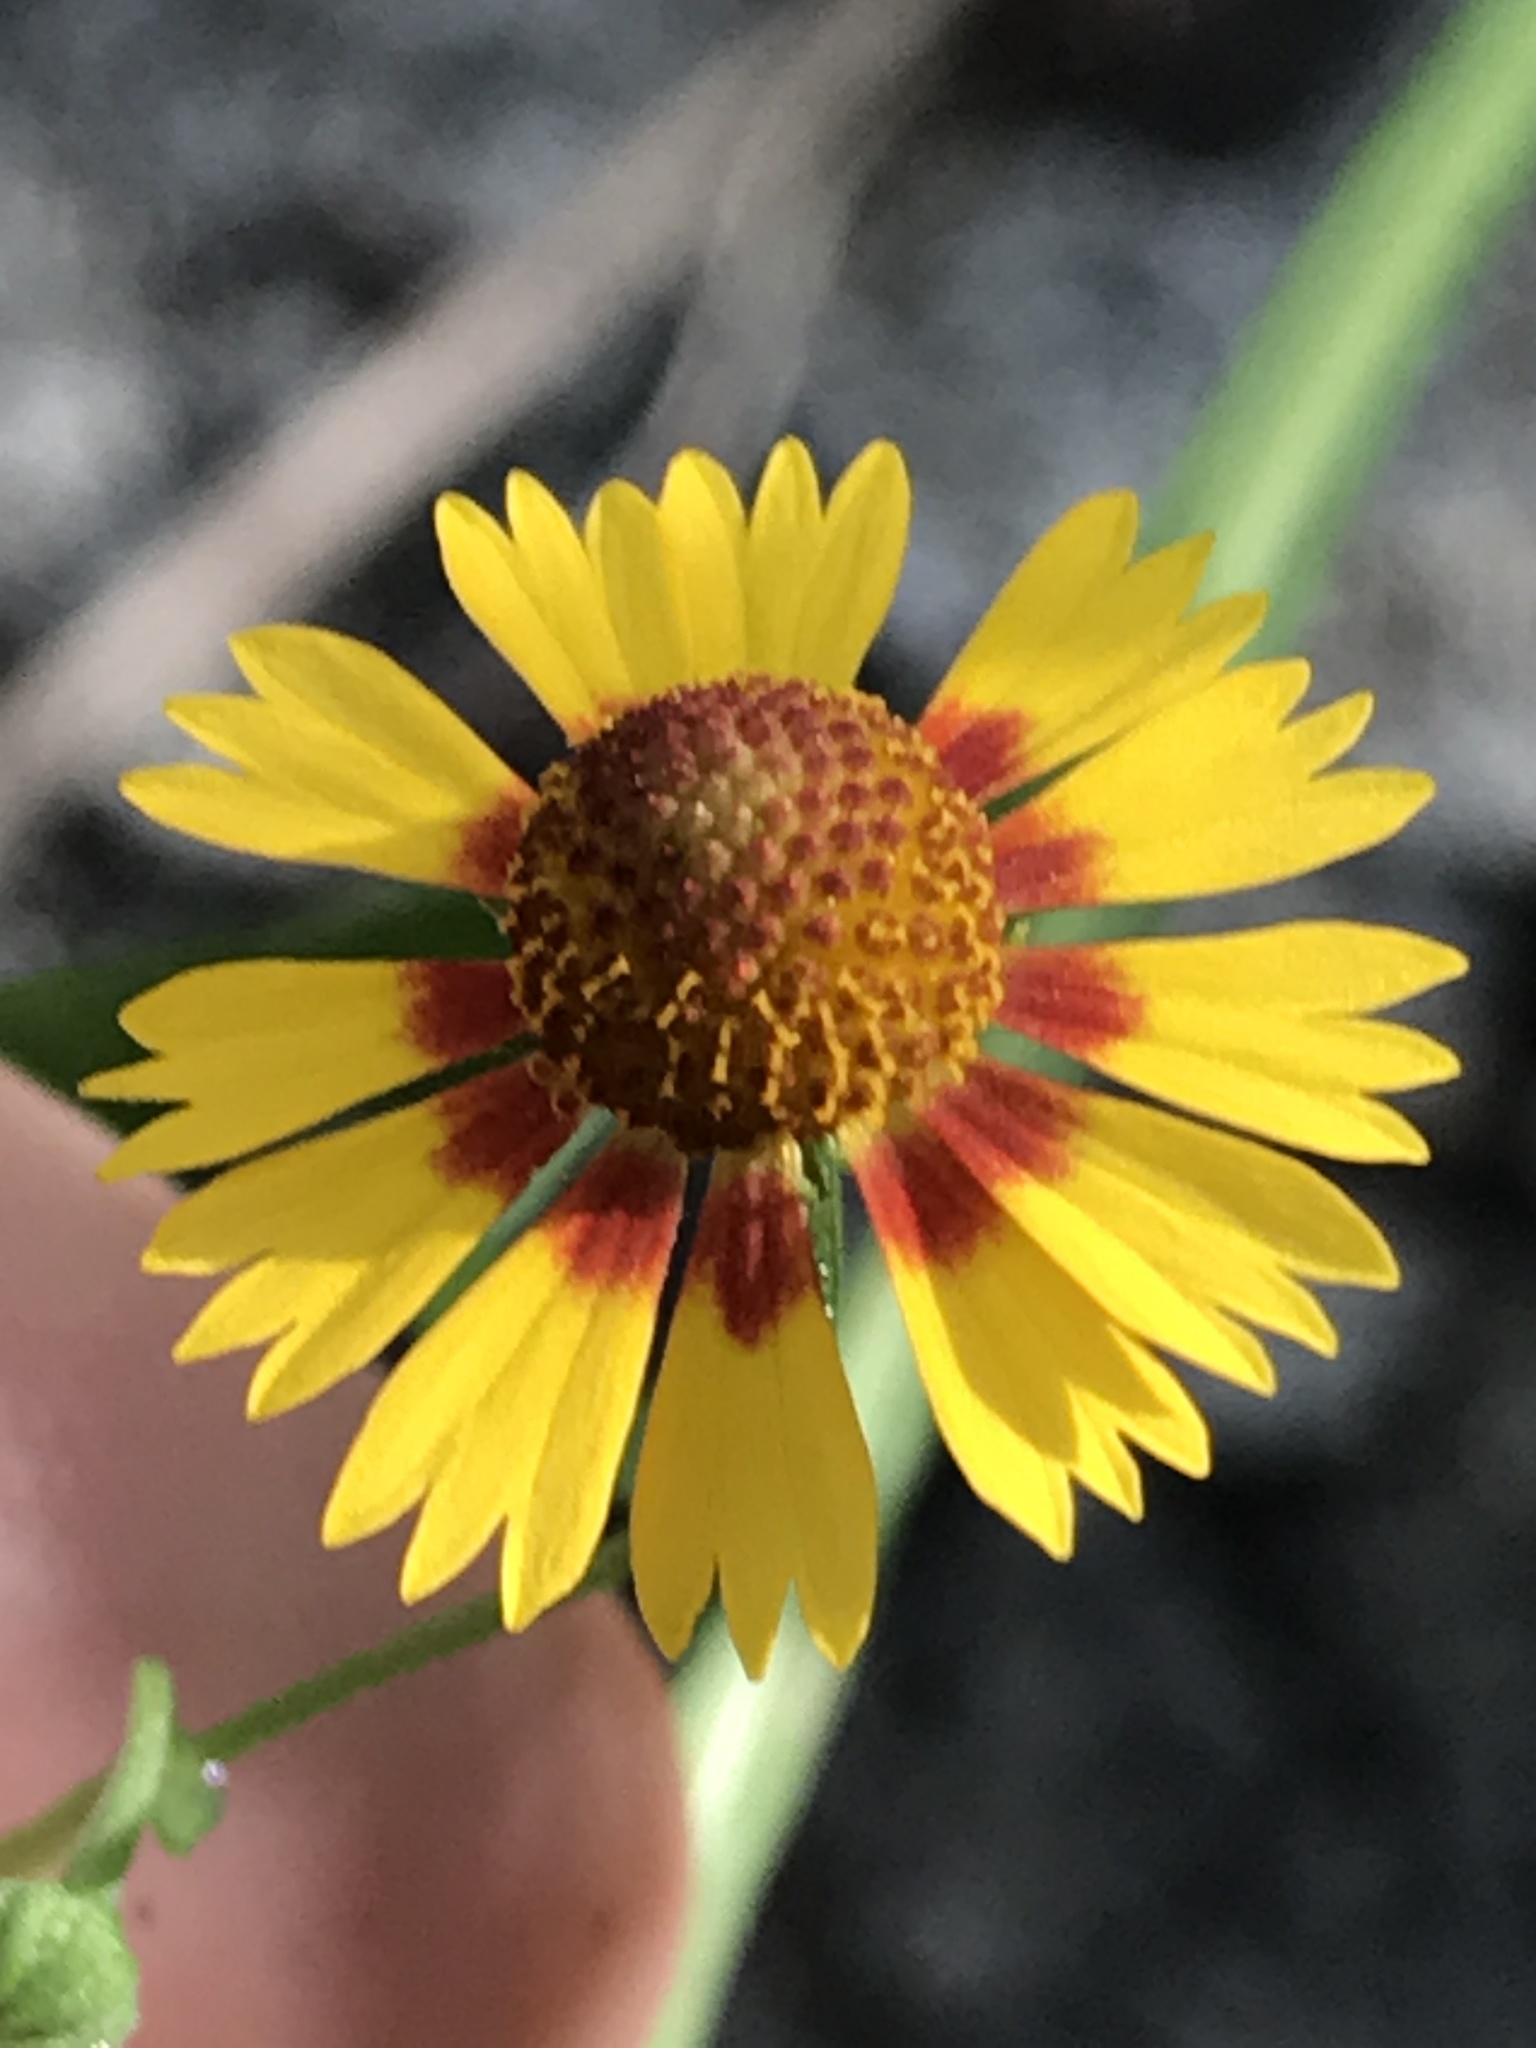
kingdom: Plantae
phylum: Tracheophyta
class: Magnoliopsida
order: Asterales
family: Asteraceae
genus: Helenium
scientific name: Helenium elegans
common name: Pretty sneezeweed
